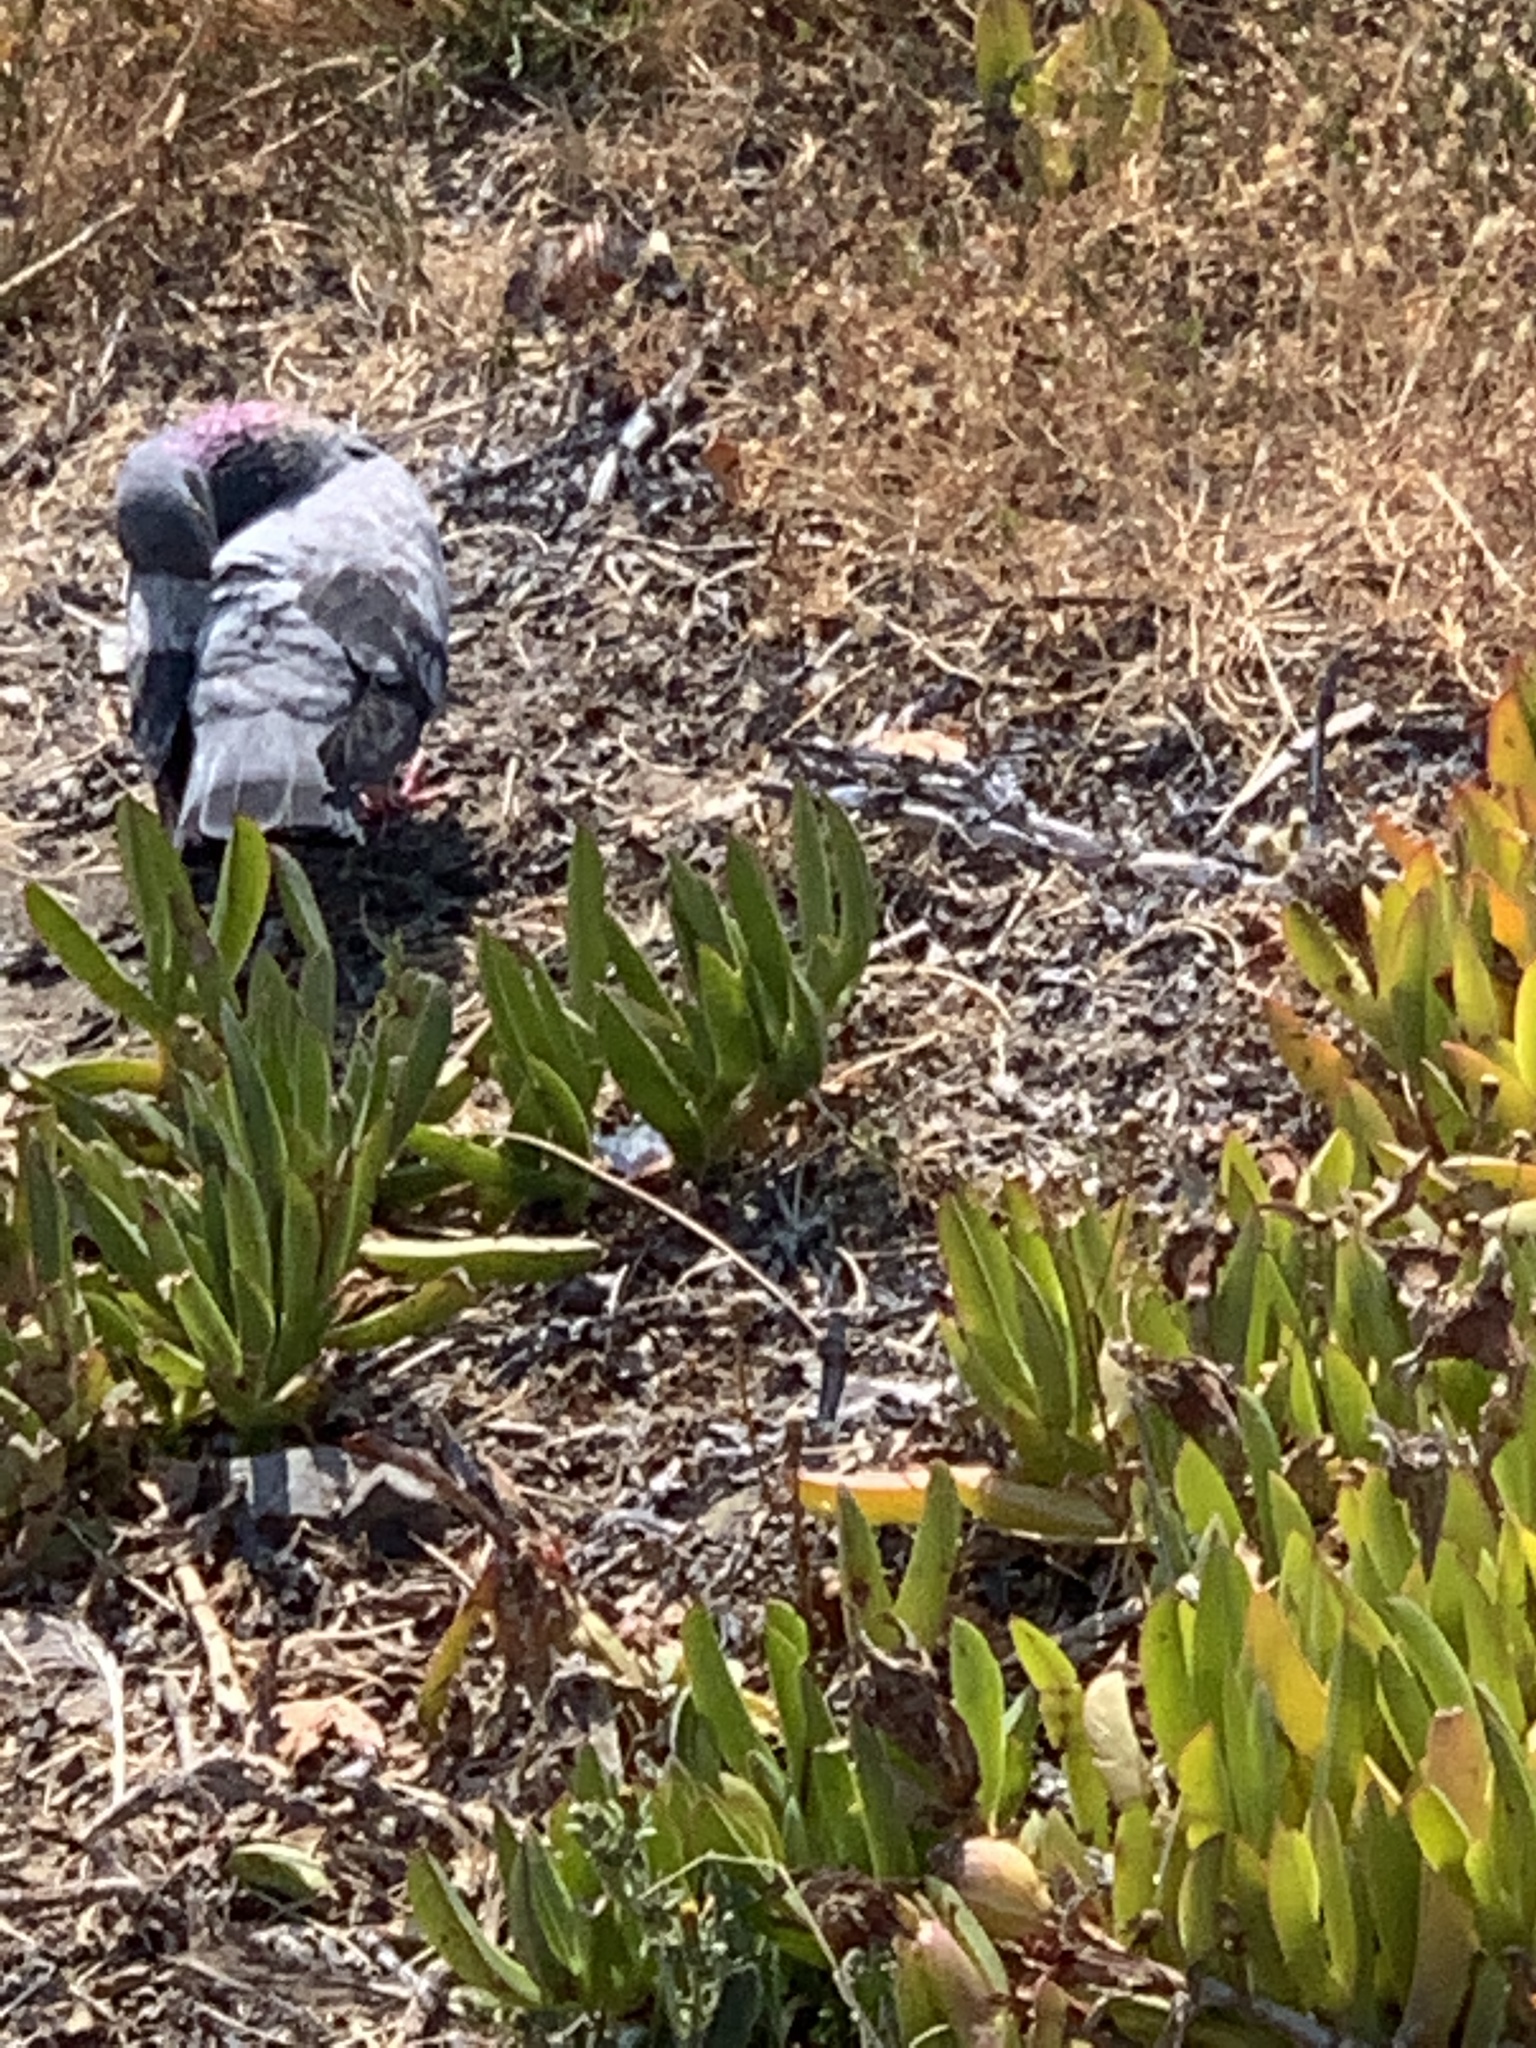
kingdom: Animalia
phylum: Chordata
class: Aves
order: Columbiformes
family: Columbidae
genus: Columba
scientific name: Columba livia
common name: Rock pigeon
